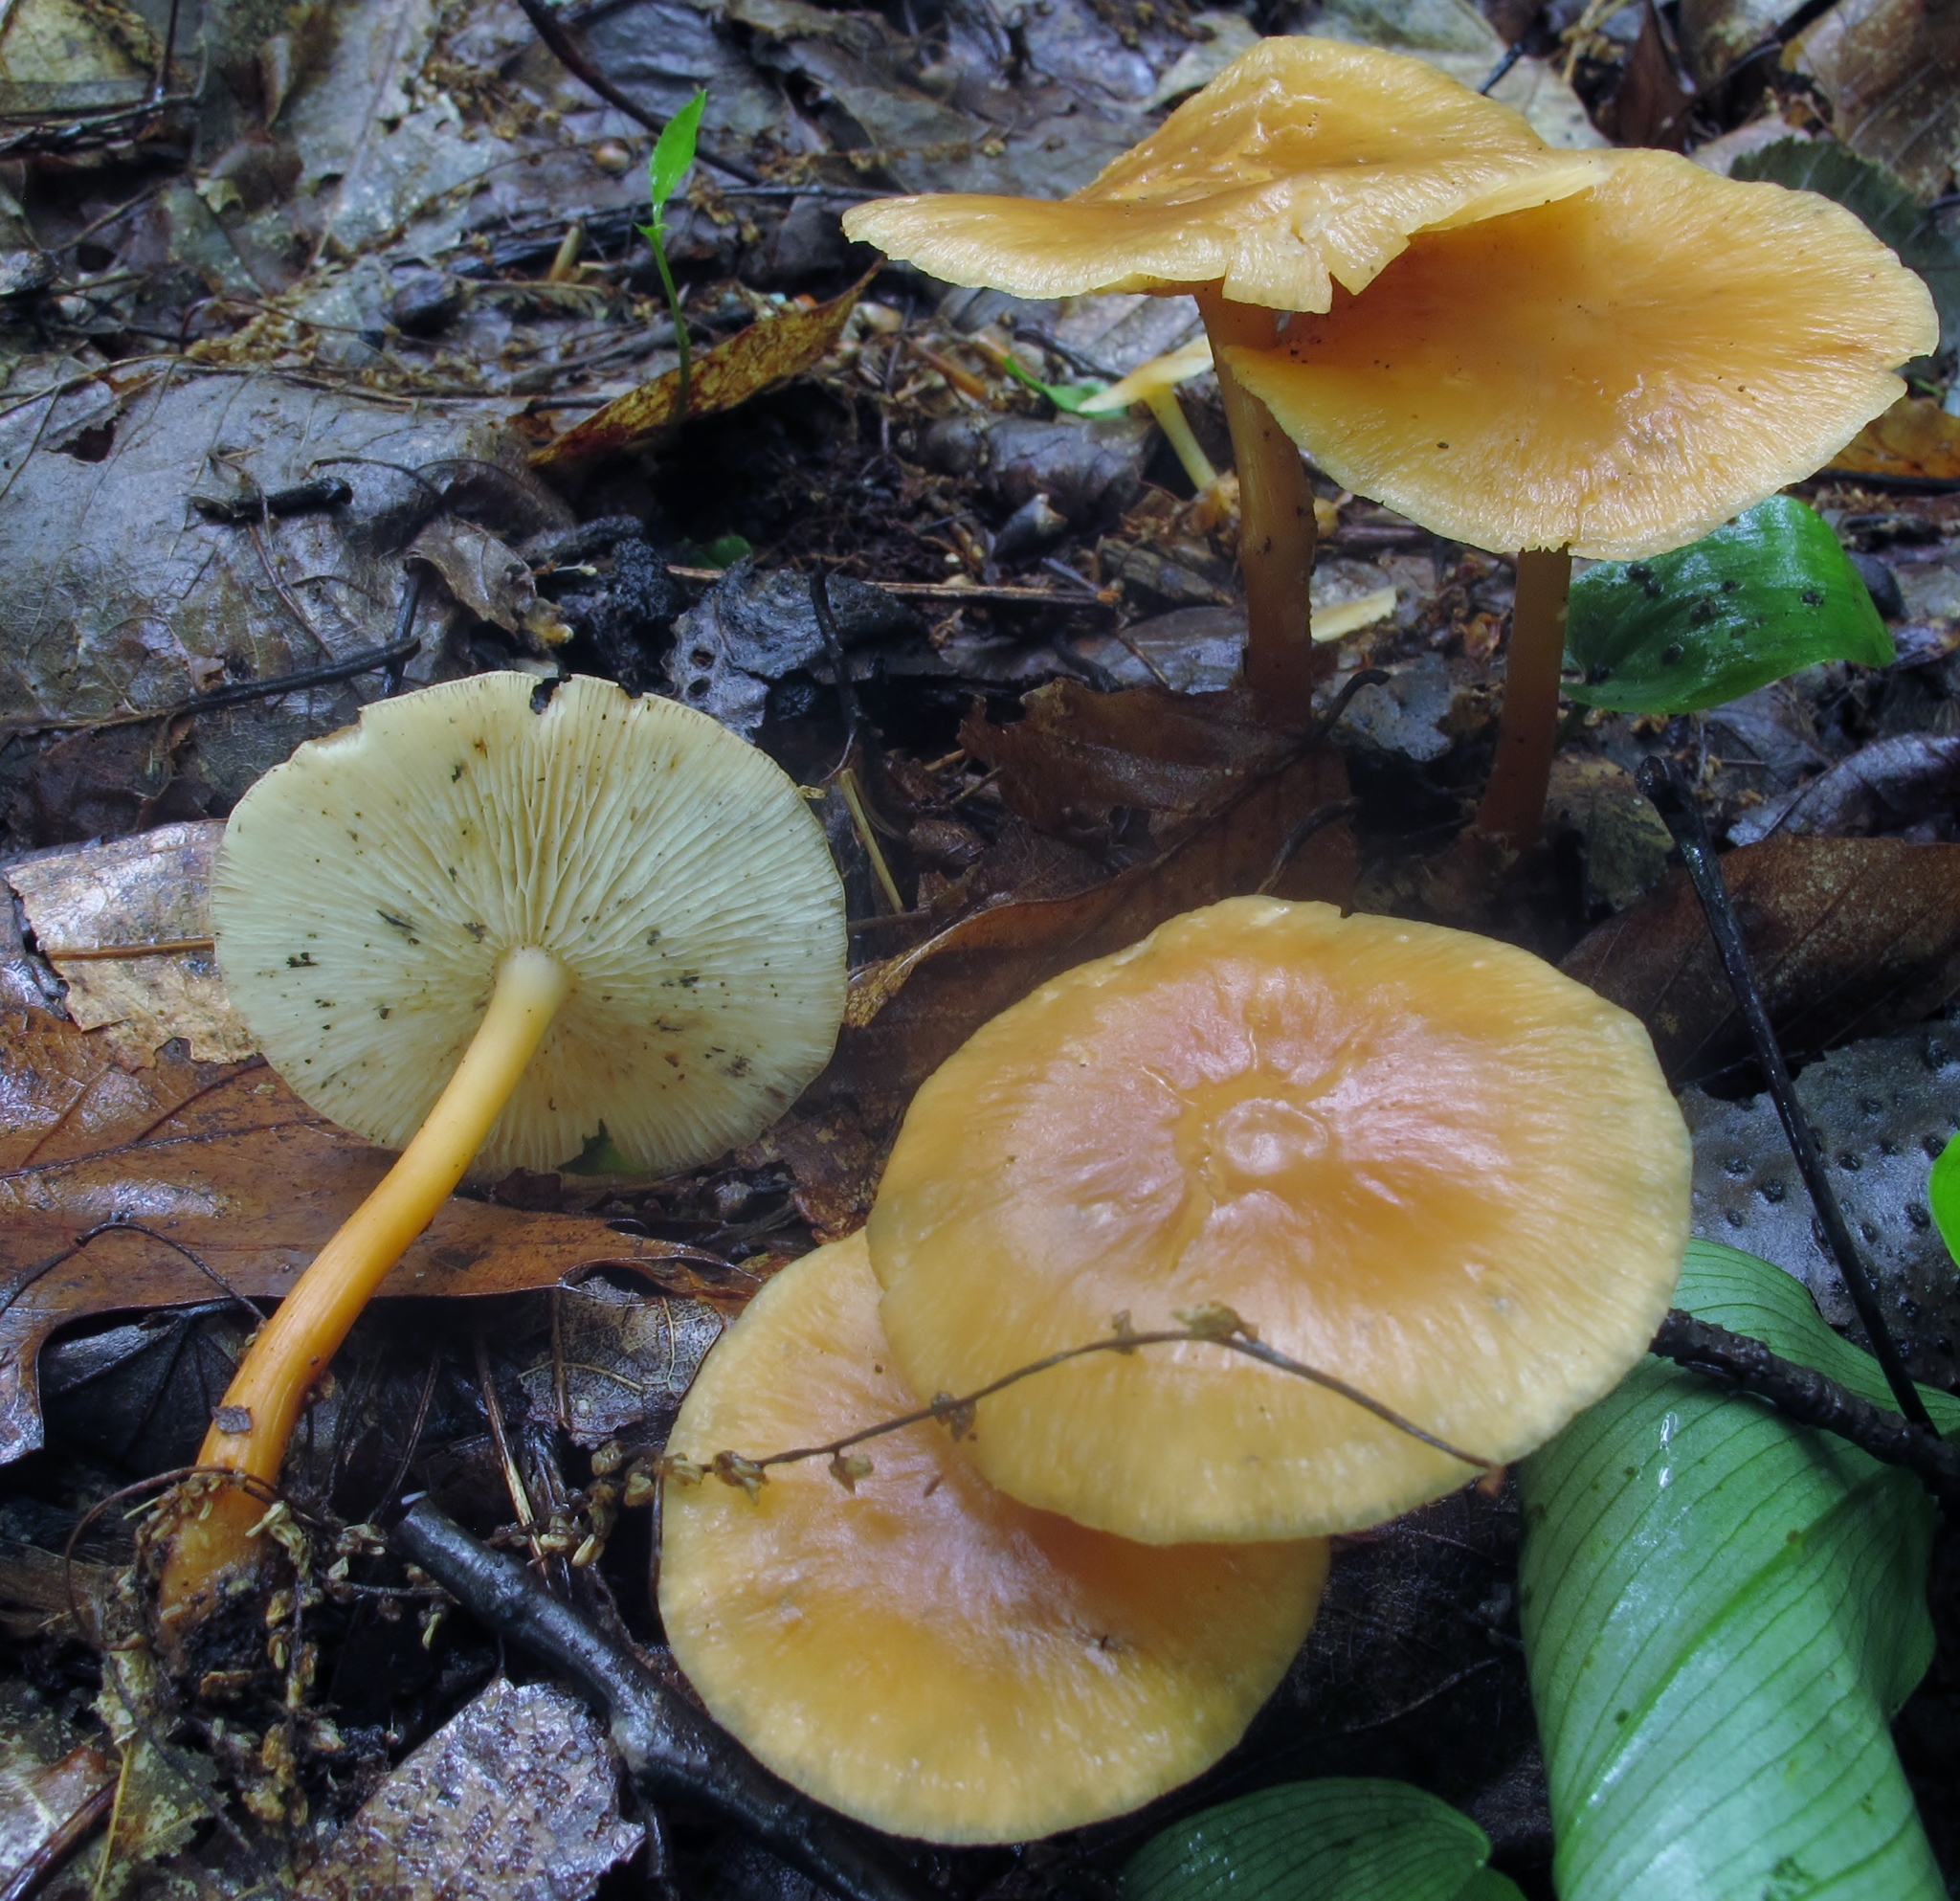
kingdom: Fungi
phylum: Basidiomycota
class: Agaricomycetes
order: Agaricales
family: Omphalotaceae
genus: Gymnopus
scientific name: Gymnopus dryophilus
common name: Penny top
